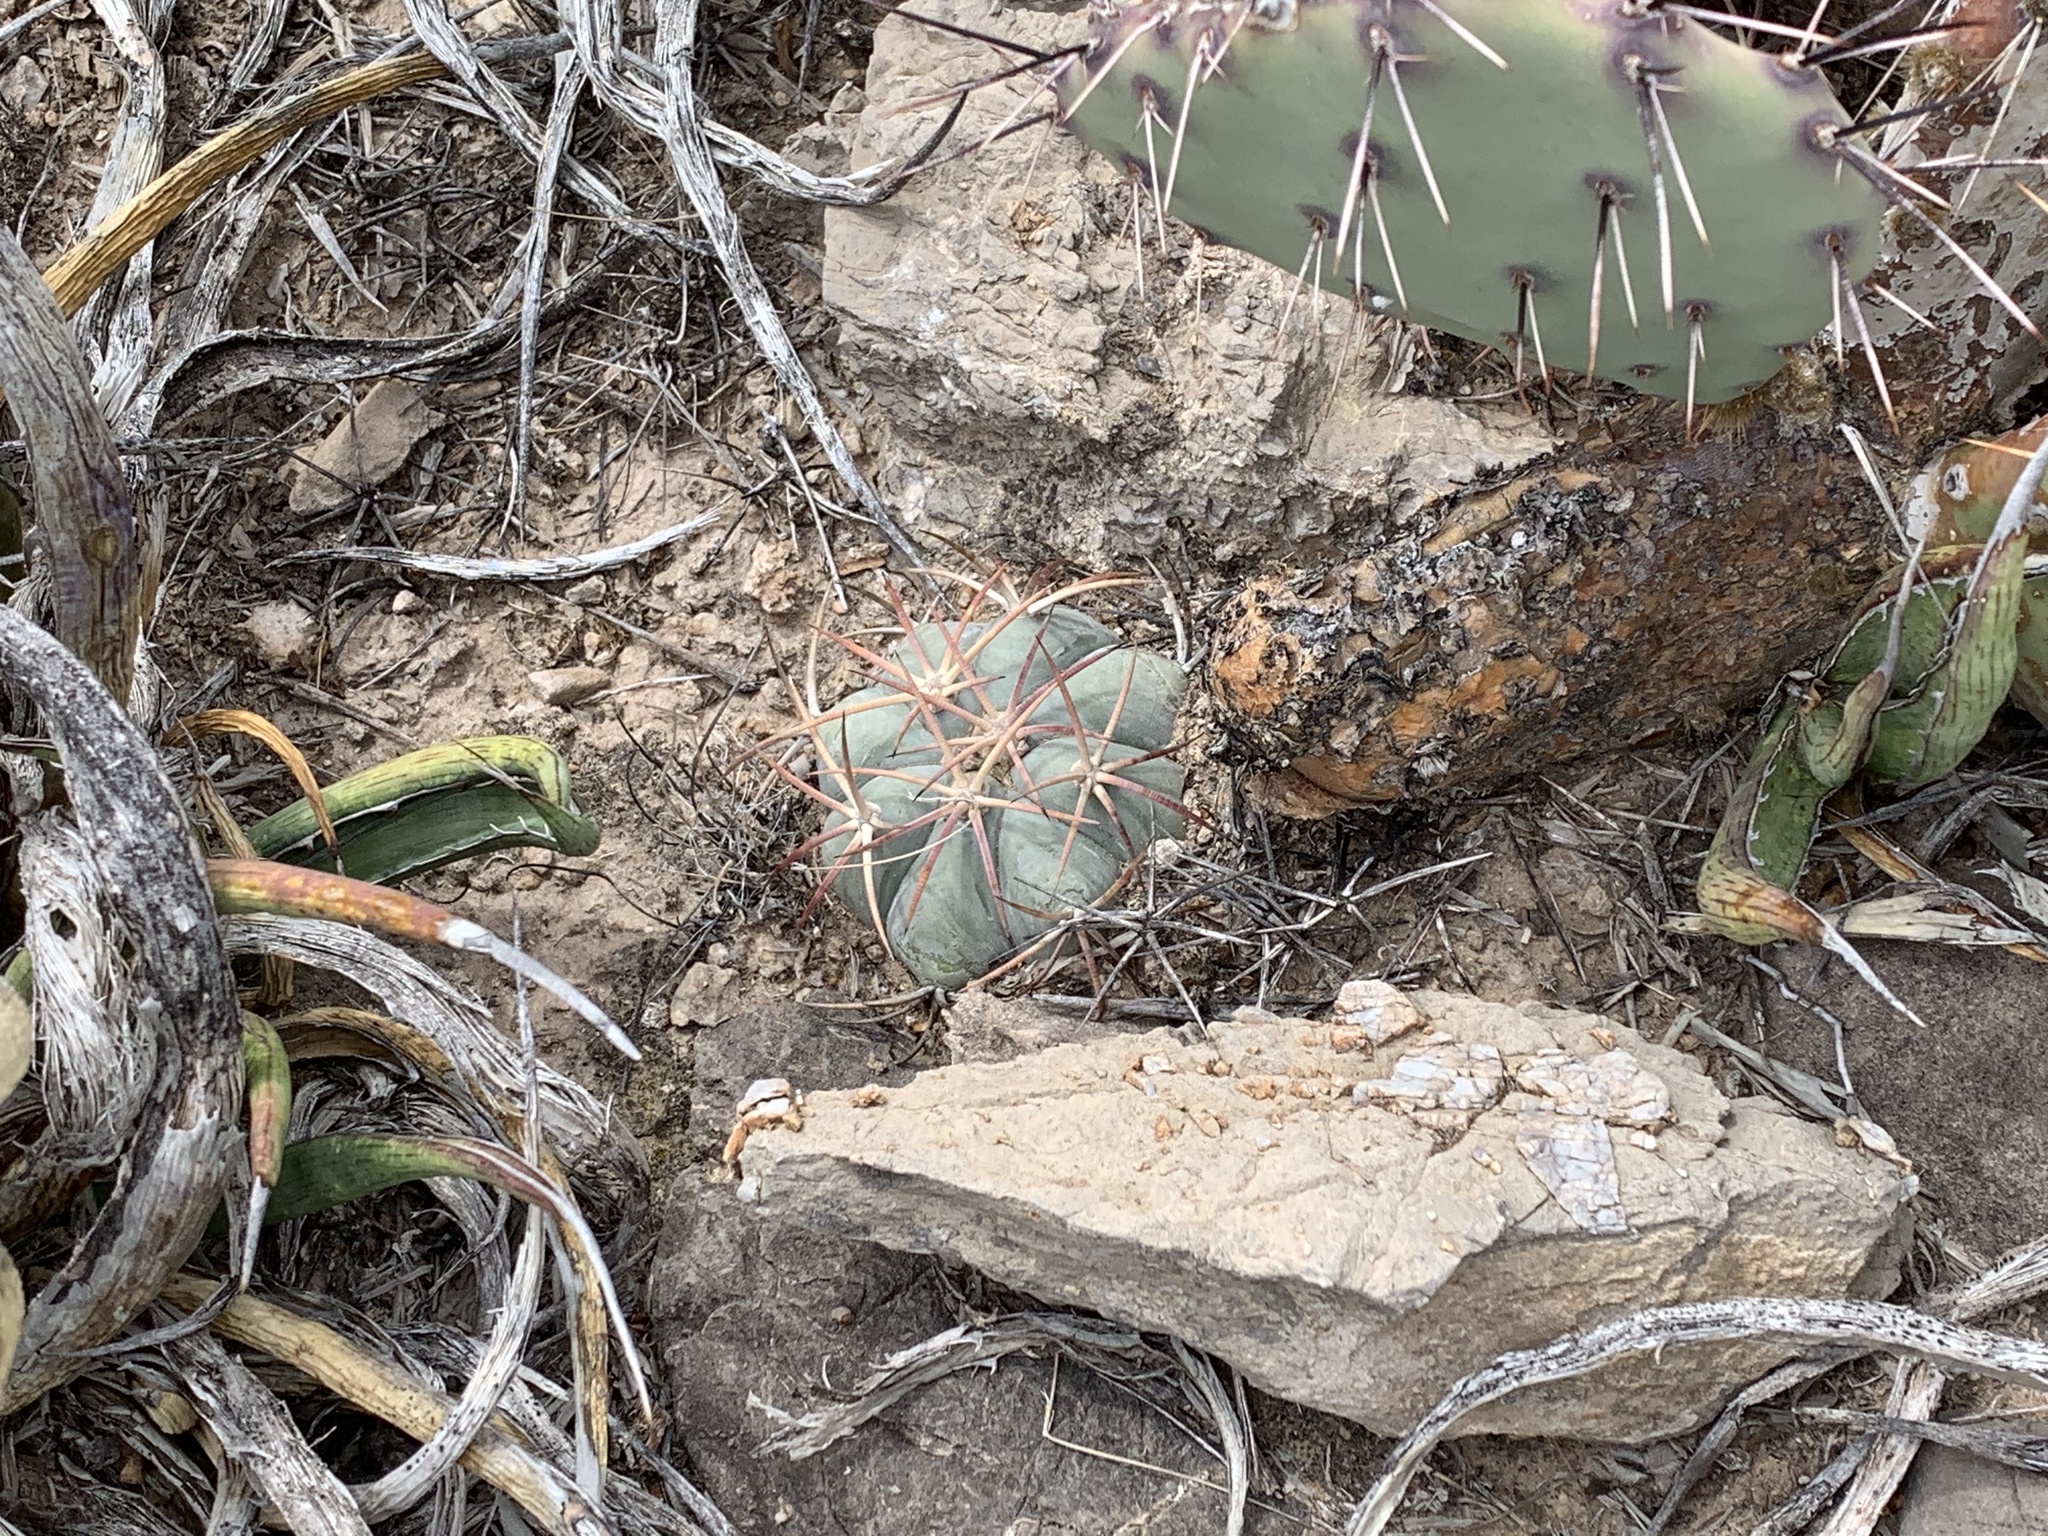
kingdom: Plantae
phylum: Tracheophyta
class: Magnoliopsida
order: Caryophyllales
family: Cactaceae
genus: Echinocactus
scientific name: Echinocactus horizonthalonius
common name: Devilshead
